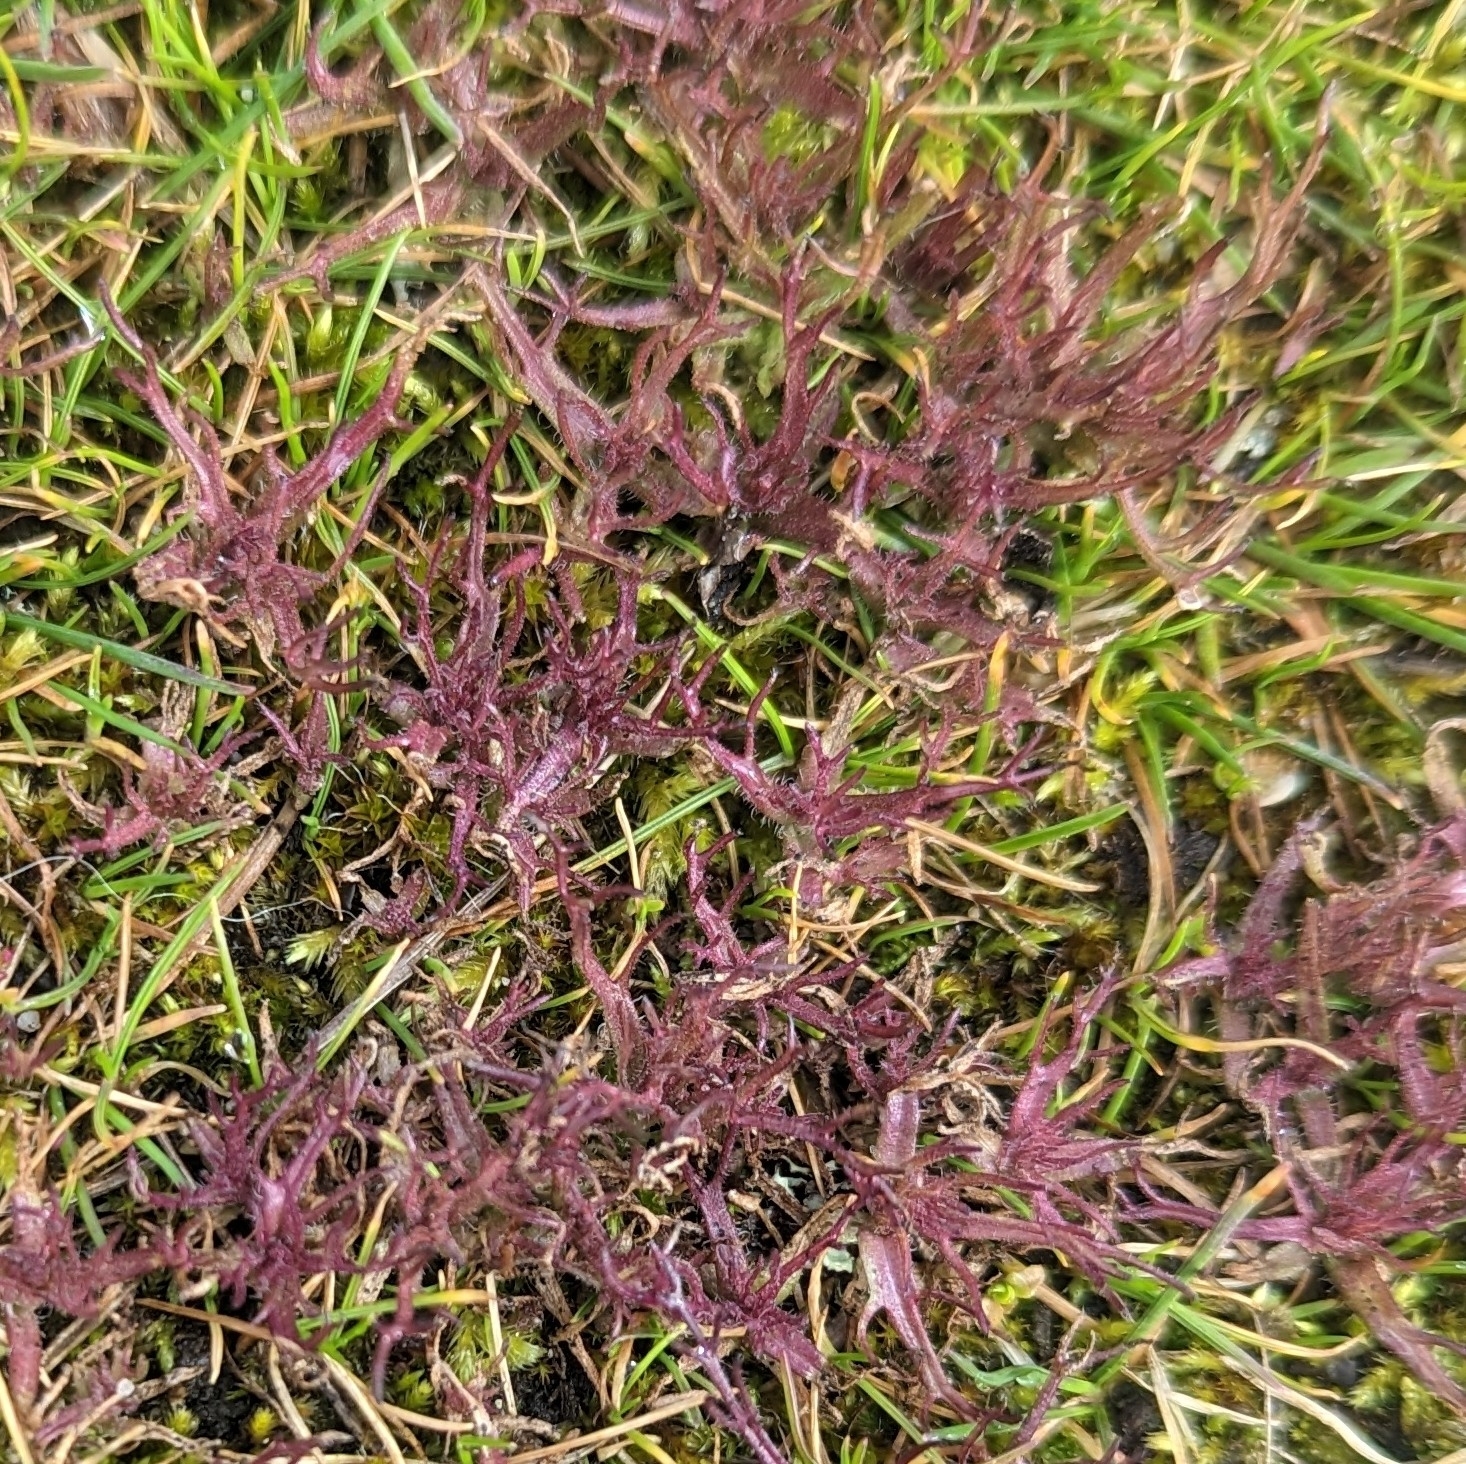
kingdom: Plantae
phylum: Tracheophyta
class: Magnoliopsida
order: Lamiales
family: Orobanchaceae
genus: Triphysaria
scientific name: Triphysaria pusilla
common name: Dwarf false owl-clover
